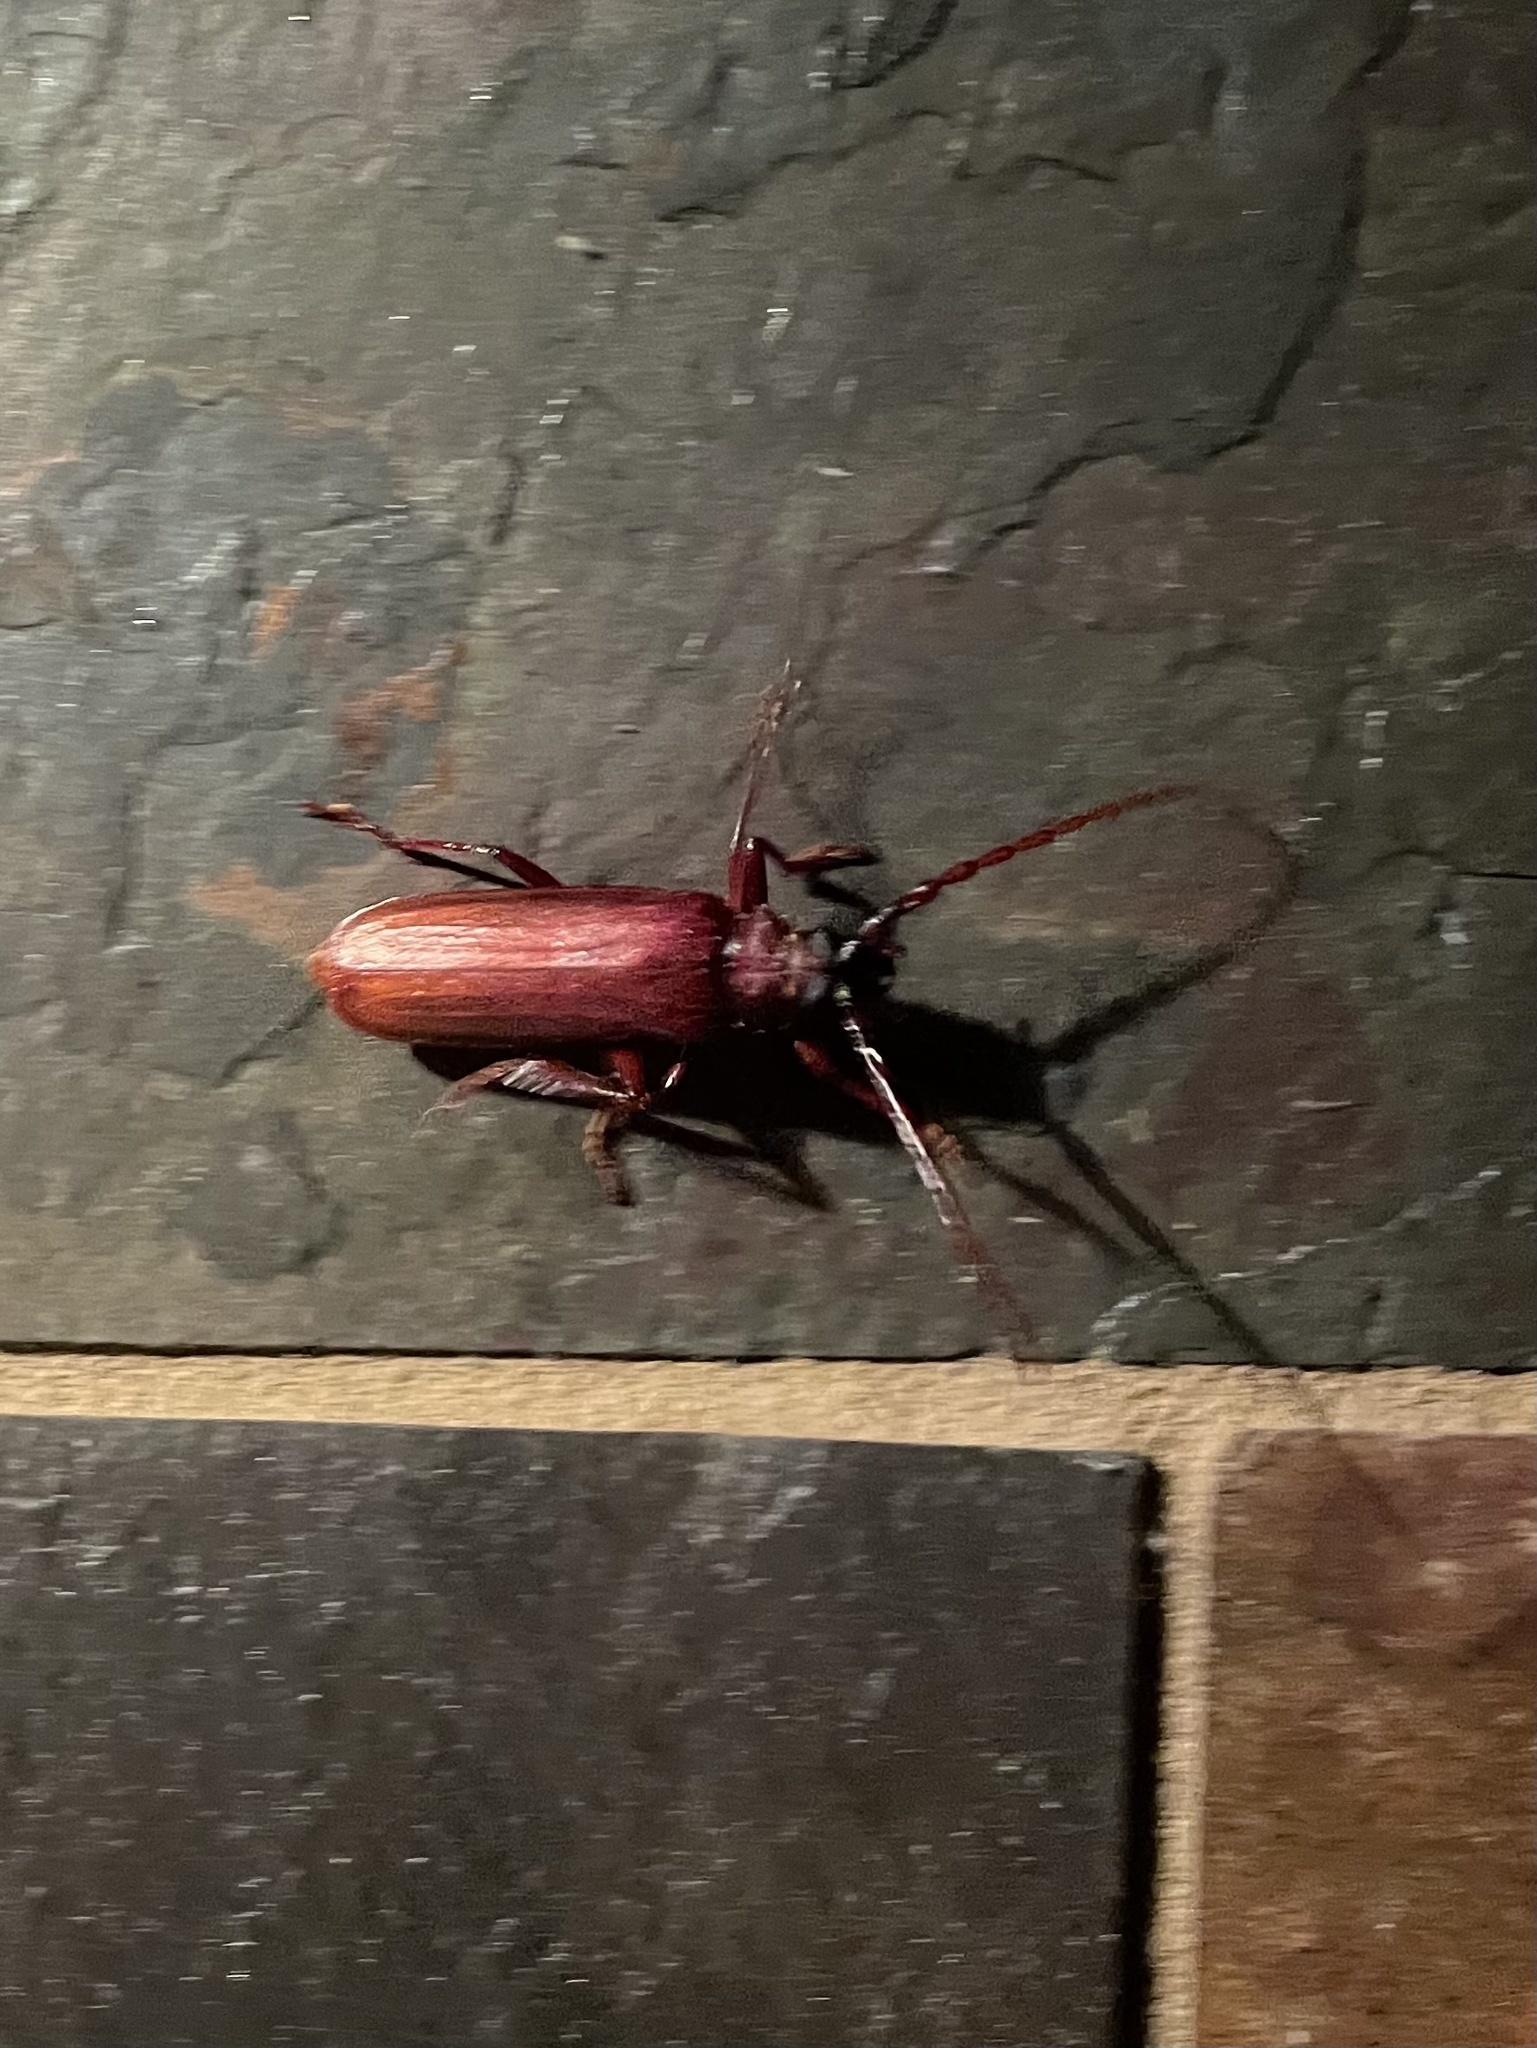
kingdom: Animalia
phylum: Arthropoda
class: Insecta
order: Coleoptera
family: Cerambycidae
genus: Orthosoma
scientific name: Orthosoma brunneum
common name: Brown prionid beetle
